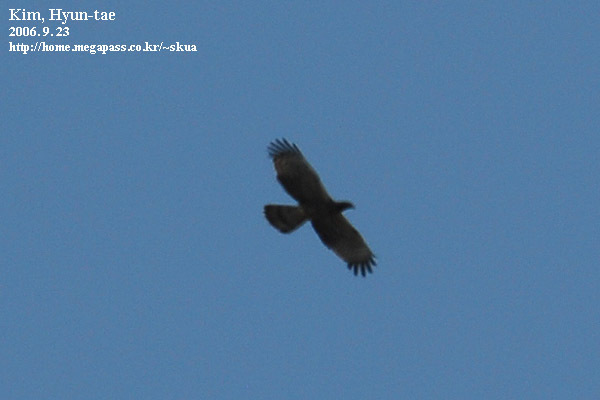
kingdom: Animalia
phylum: Chordata
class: Aves
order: Accipitriformes
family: Accipitridae
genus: Pernis
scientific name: Pernis ptilorhynchus
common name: Crested honey buzzard
